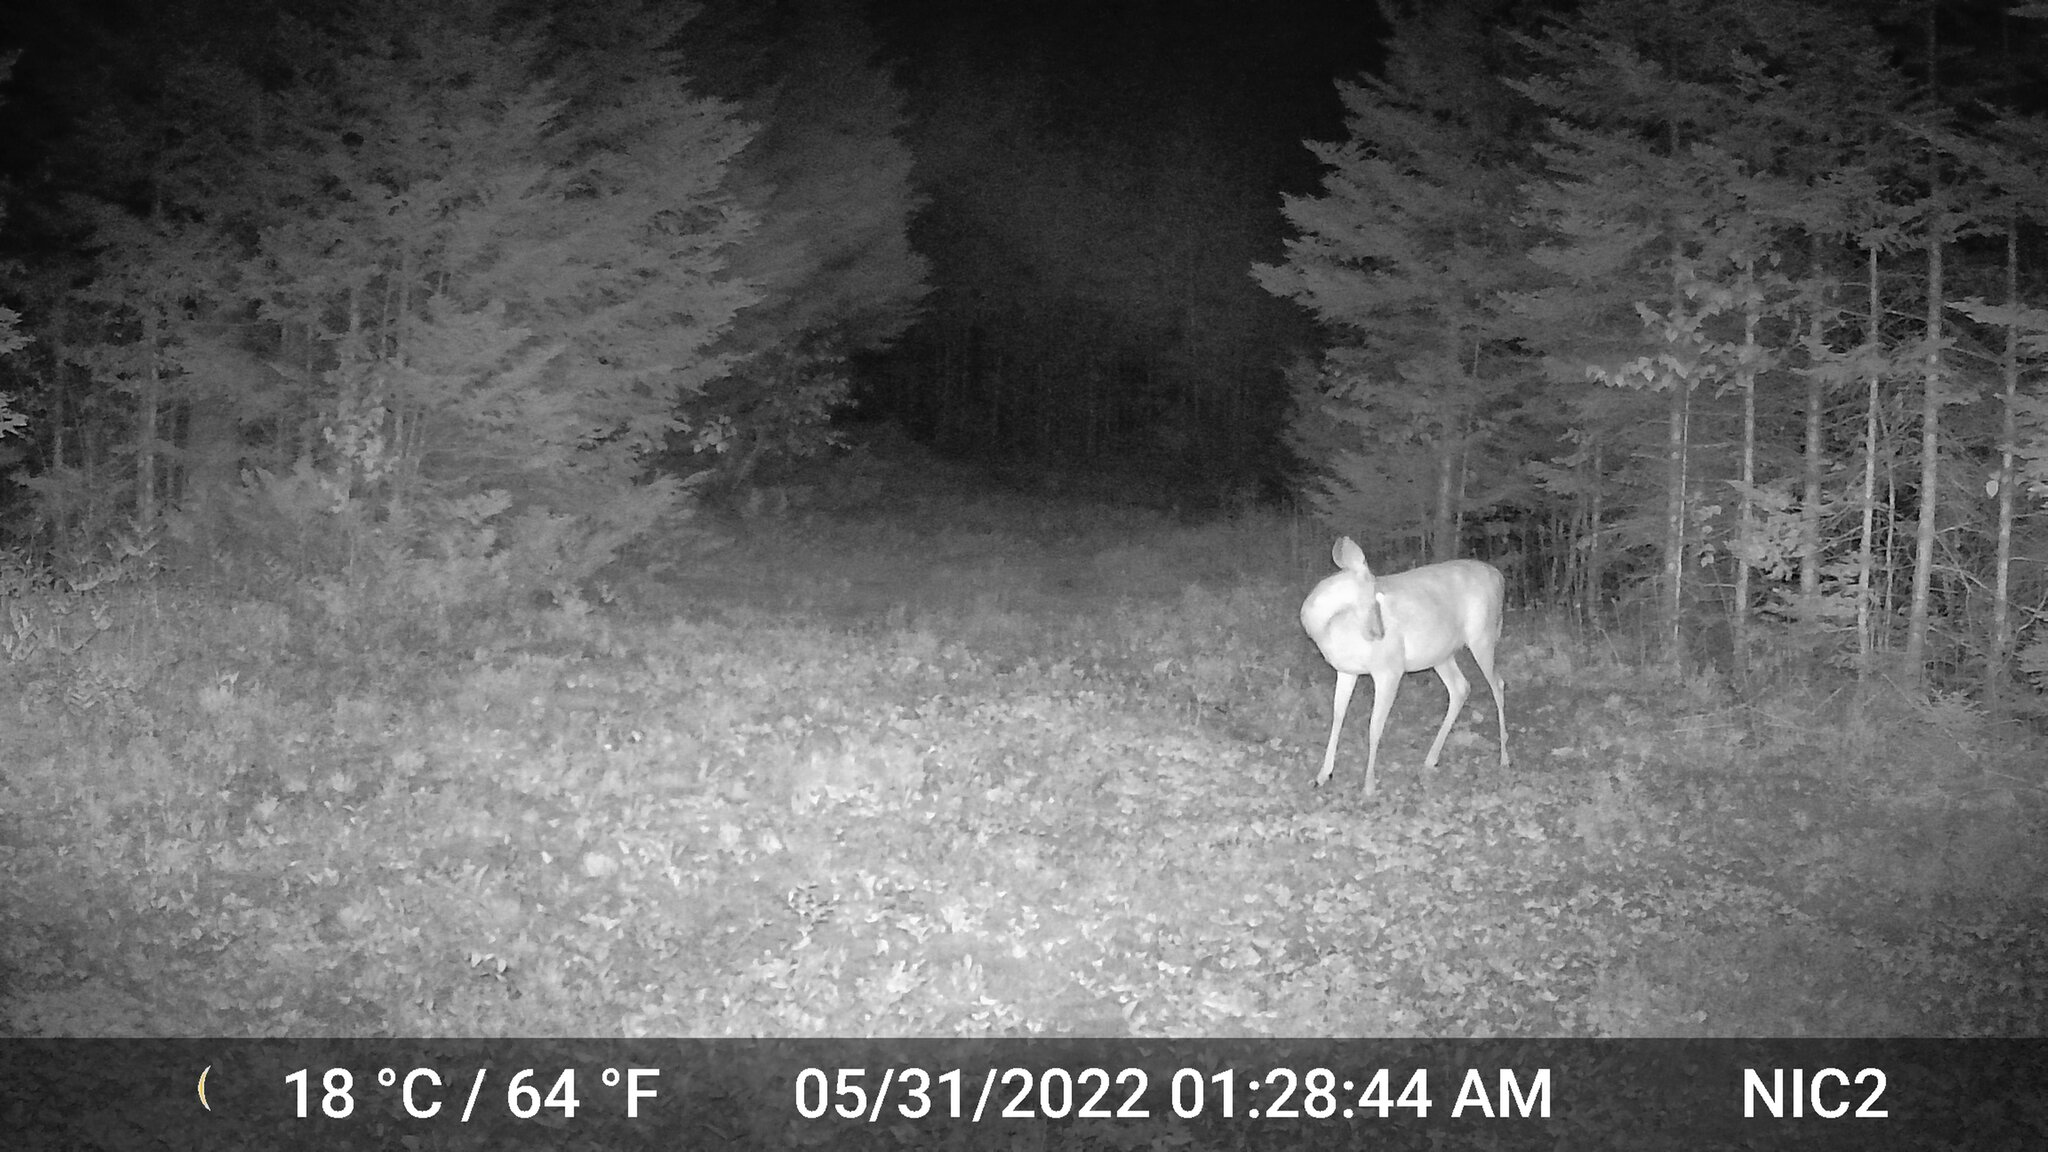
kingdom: Animalia
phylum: Chordata
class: Mammalia
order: Artiodactyla
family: Cervidae
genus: Odocoileus
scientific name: Odocoileus virginianus
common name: White-tailed deer
